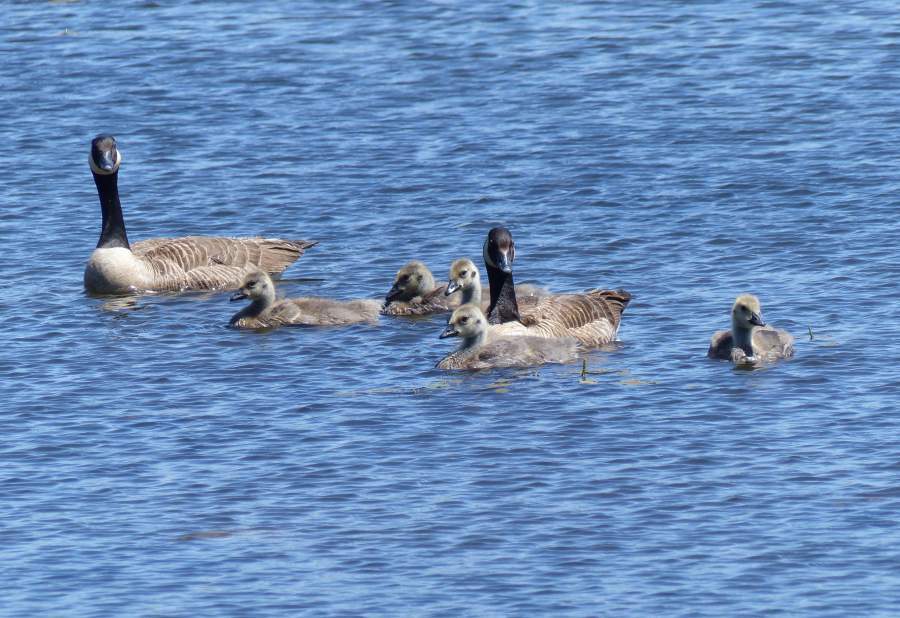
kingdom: Animalia
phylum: Chordata
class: Aves
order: Anseriformes
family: Anatidae
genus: Branta
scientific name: Branta canadensis
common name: Canada goose
